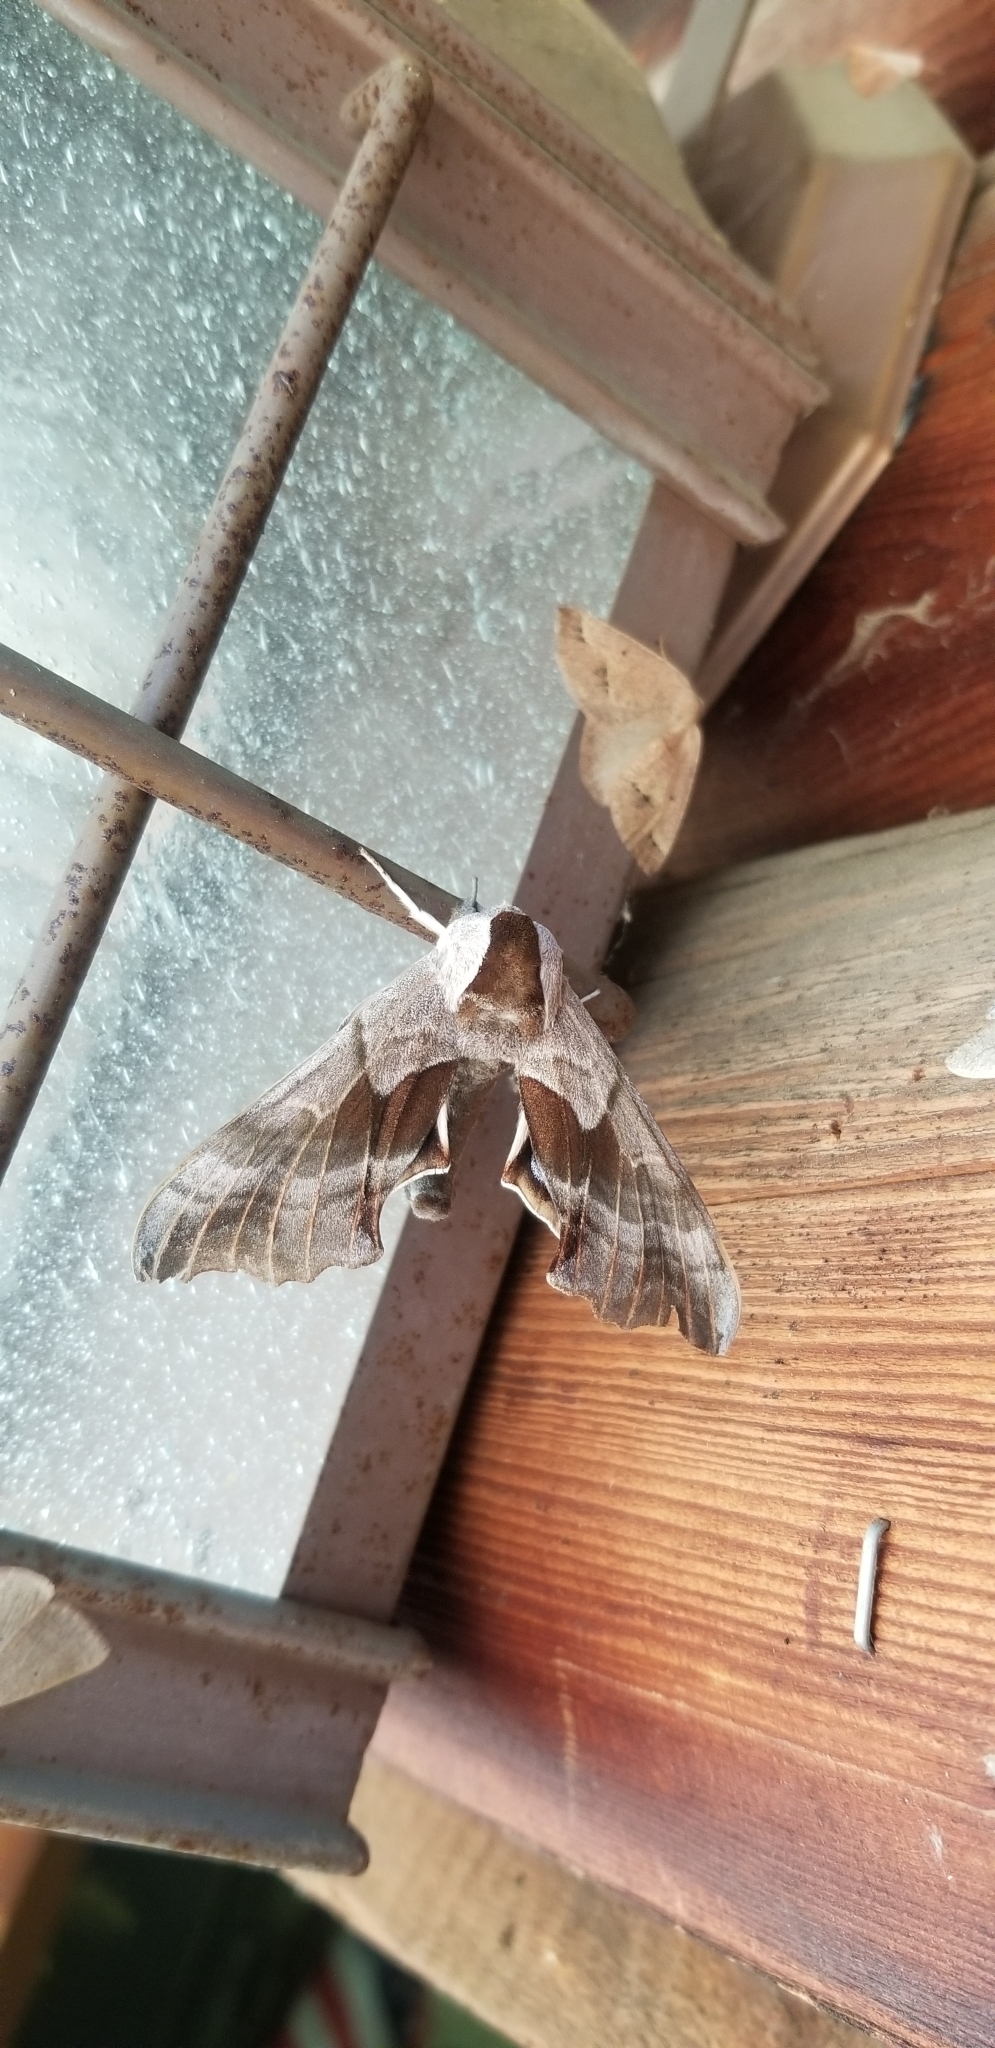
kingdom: Animalia
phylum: Arthropoda
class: Insecta
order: Lepidoptera
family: Sphingidae
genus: Smerinthus
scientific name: Smerinthus cerisyi
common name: Cerisy's sphinx moth
